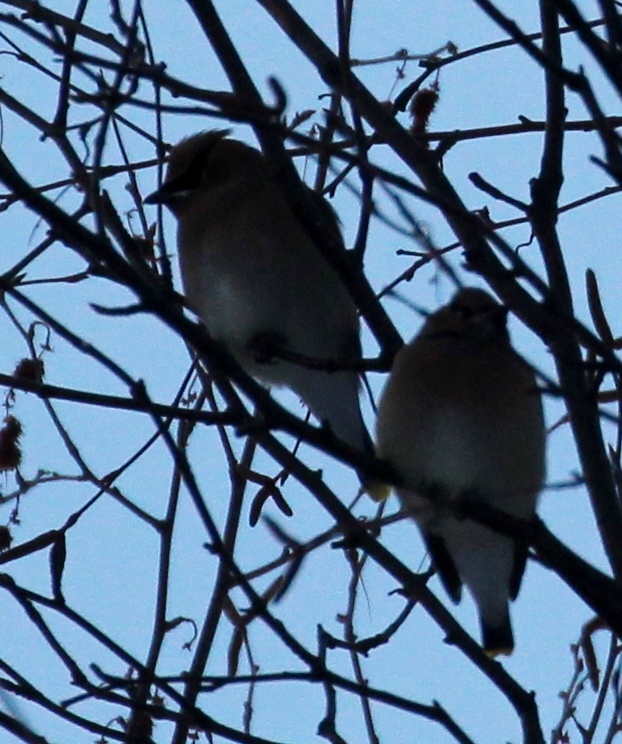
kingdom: Animalia
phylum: Chordata
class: Aves
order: Passeriformes
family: Bombycillidae
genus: Bombycilla
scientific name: Bombycilla cedrorum
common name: Cedar waxwing
